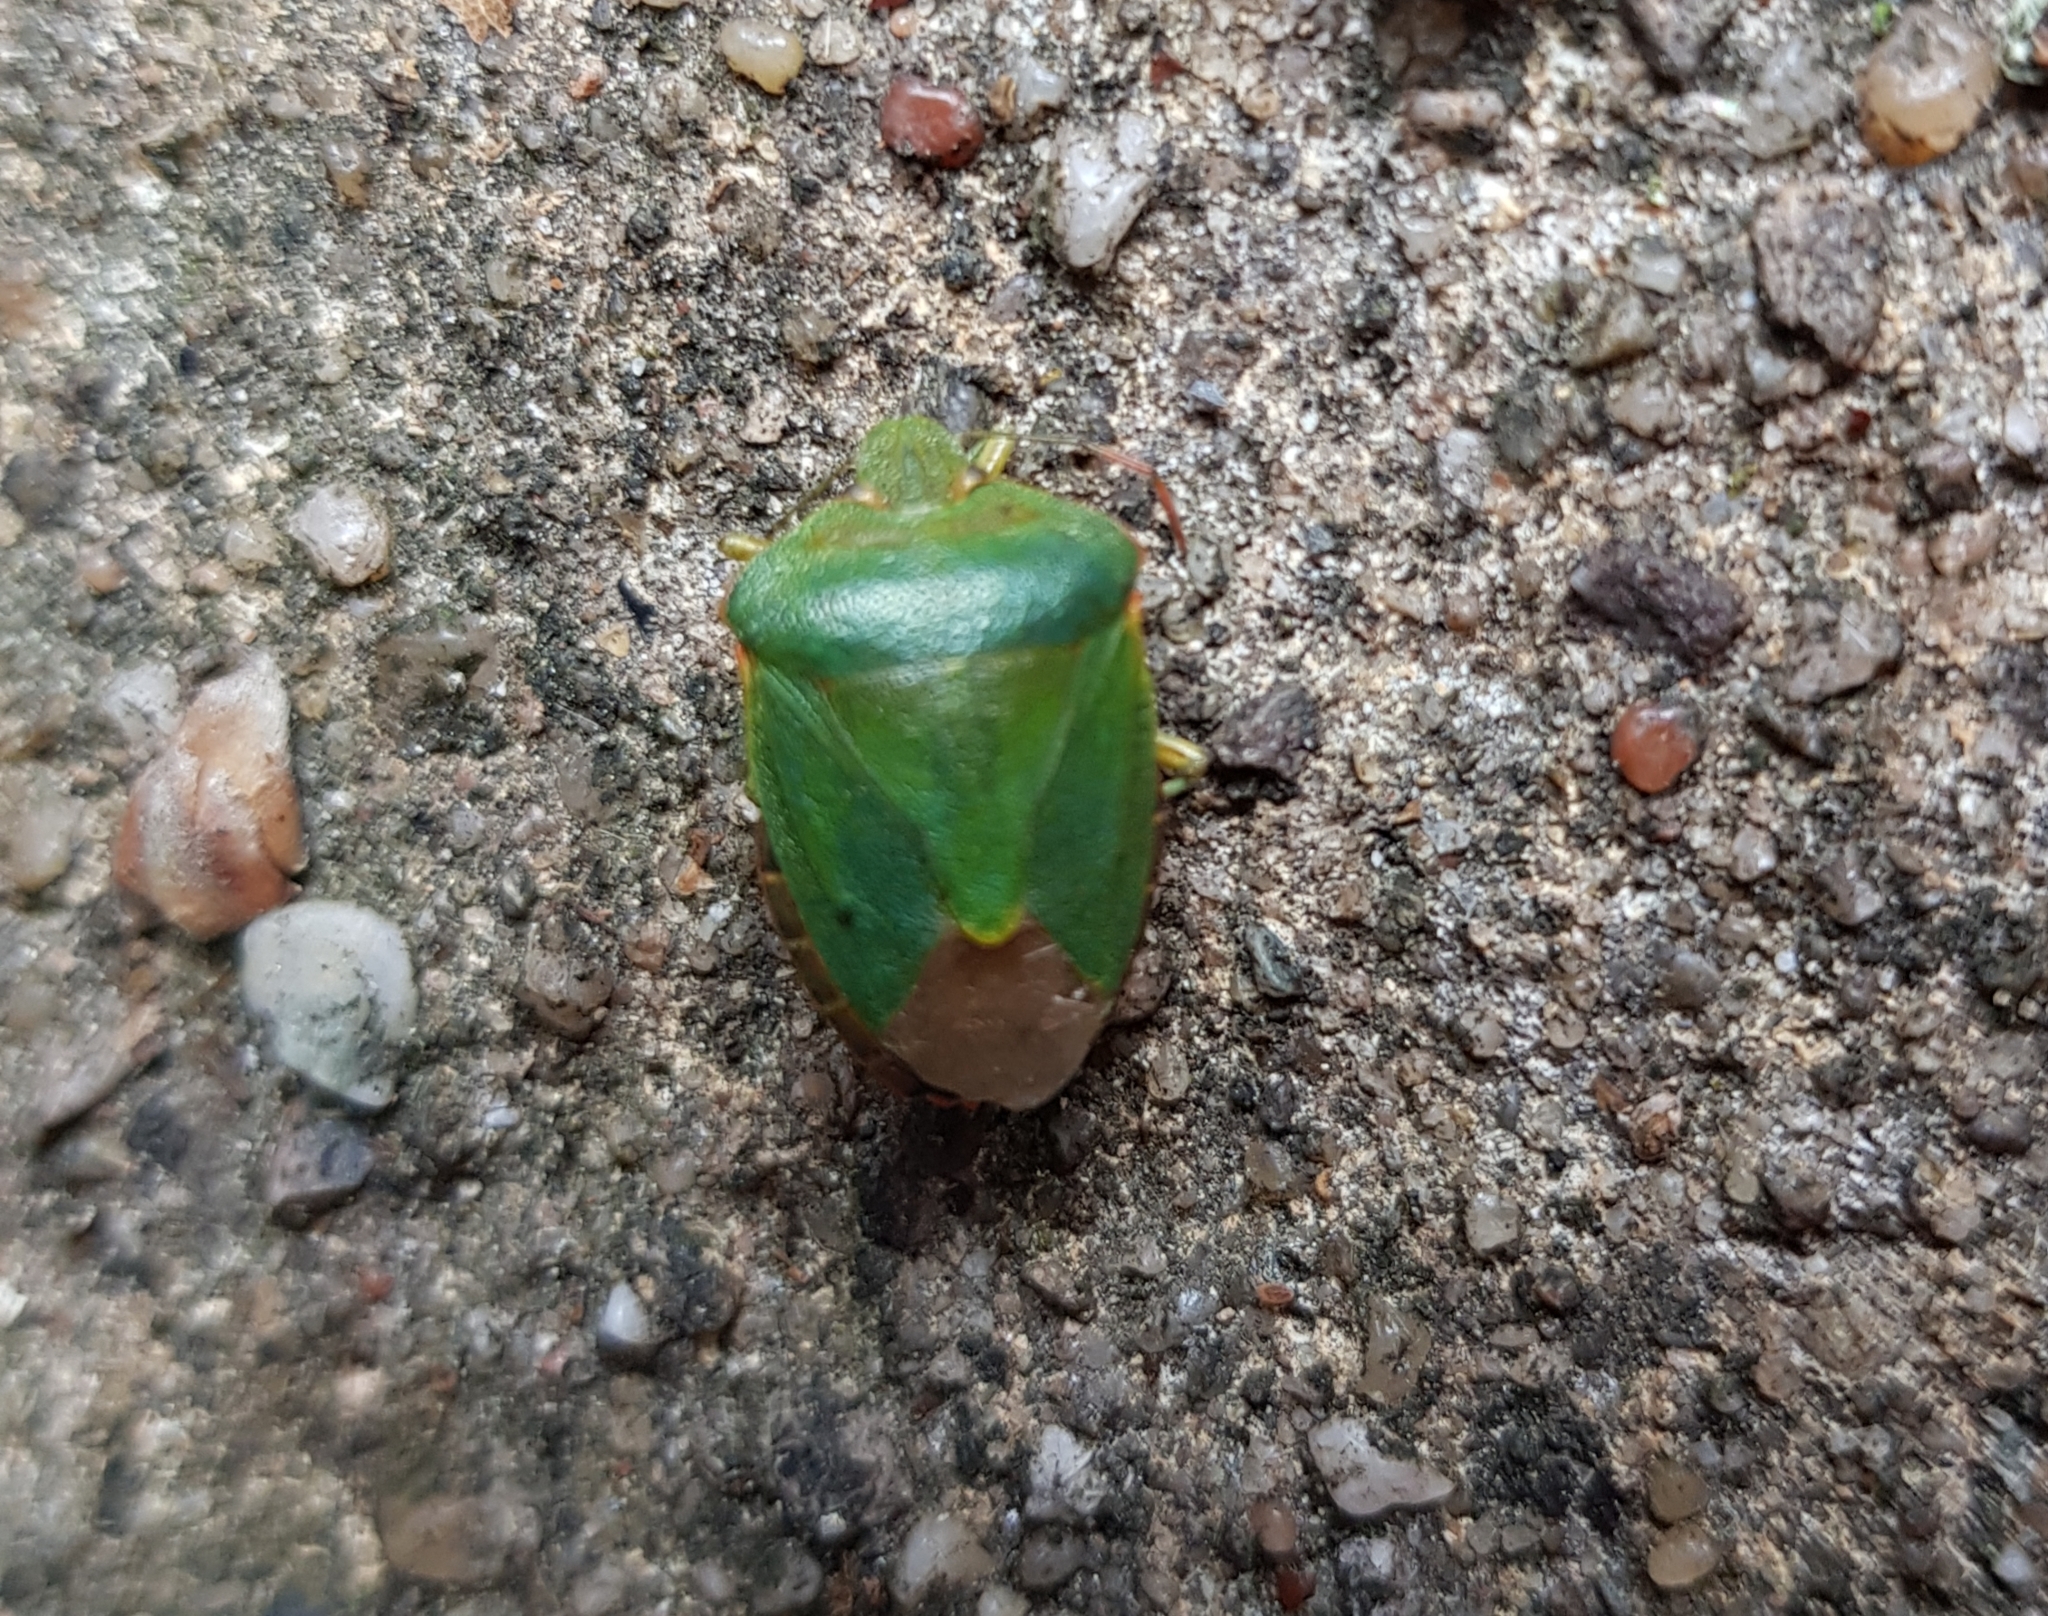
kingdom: Animalia
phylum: Arthropoda
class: Insecta
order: Hemiptera
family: Pentatomidae
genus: Palomena
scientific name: Palomena prasina
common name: Green shieldbug
